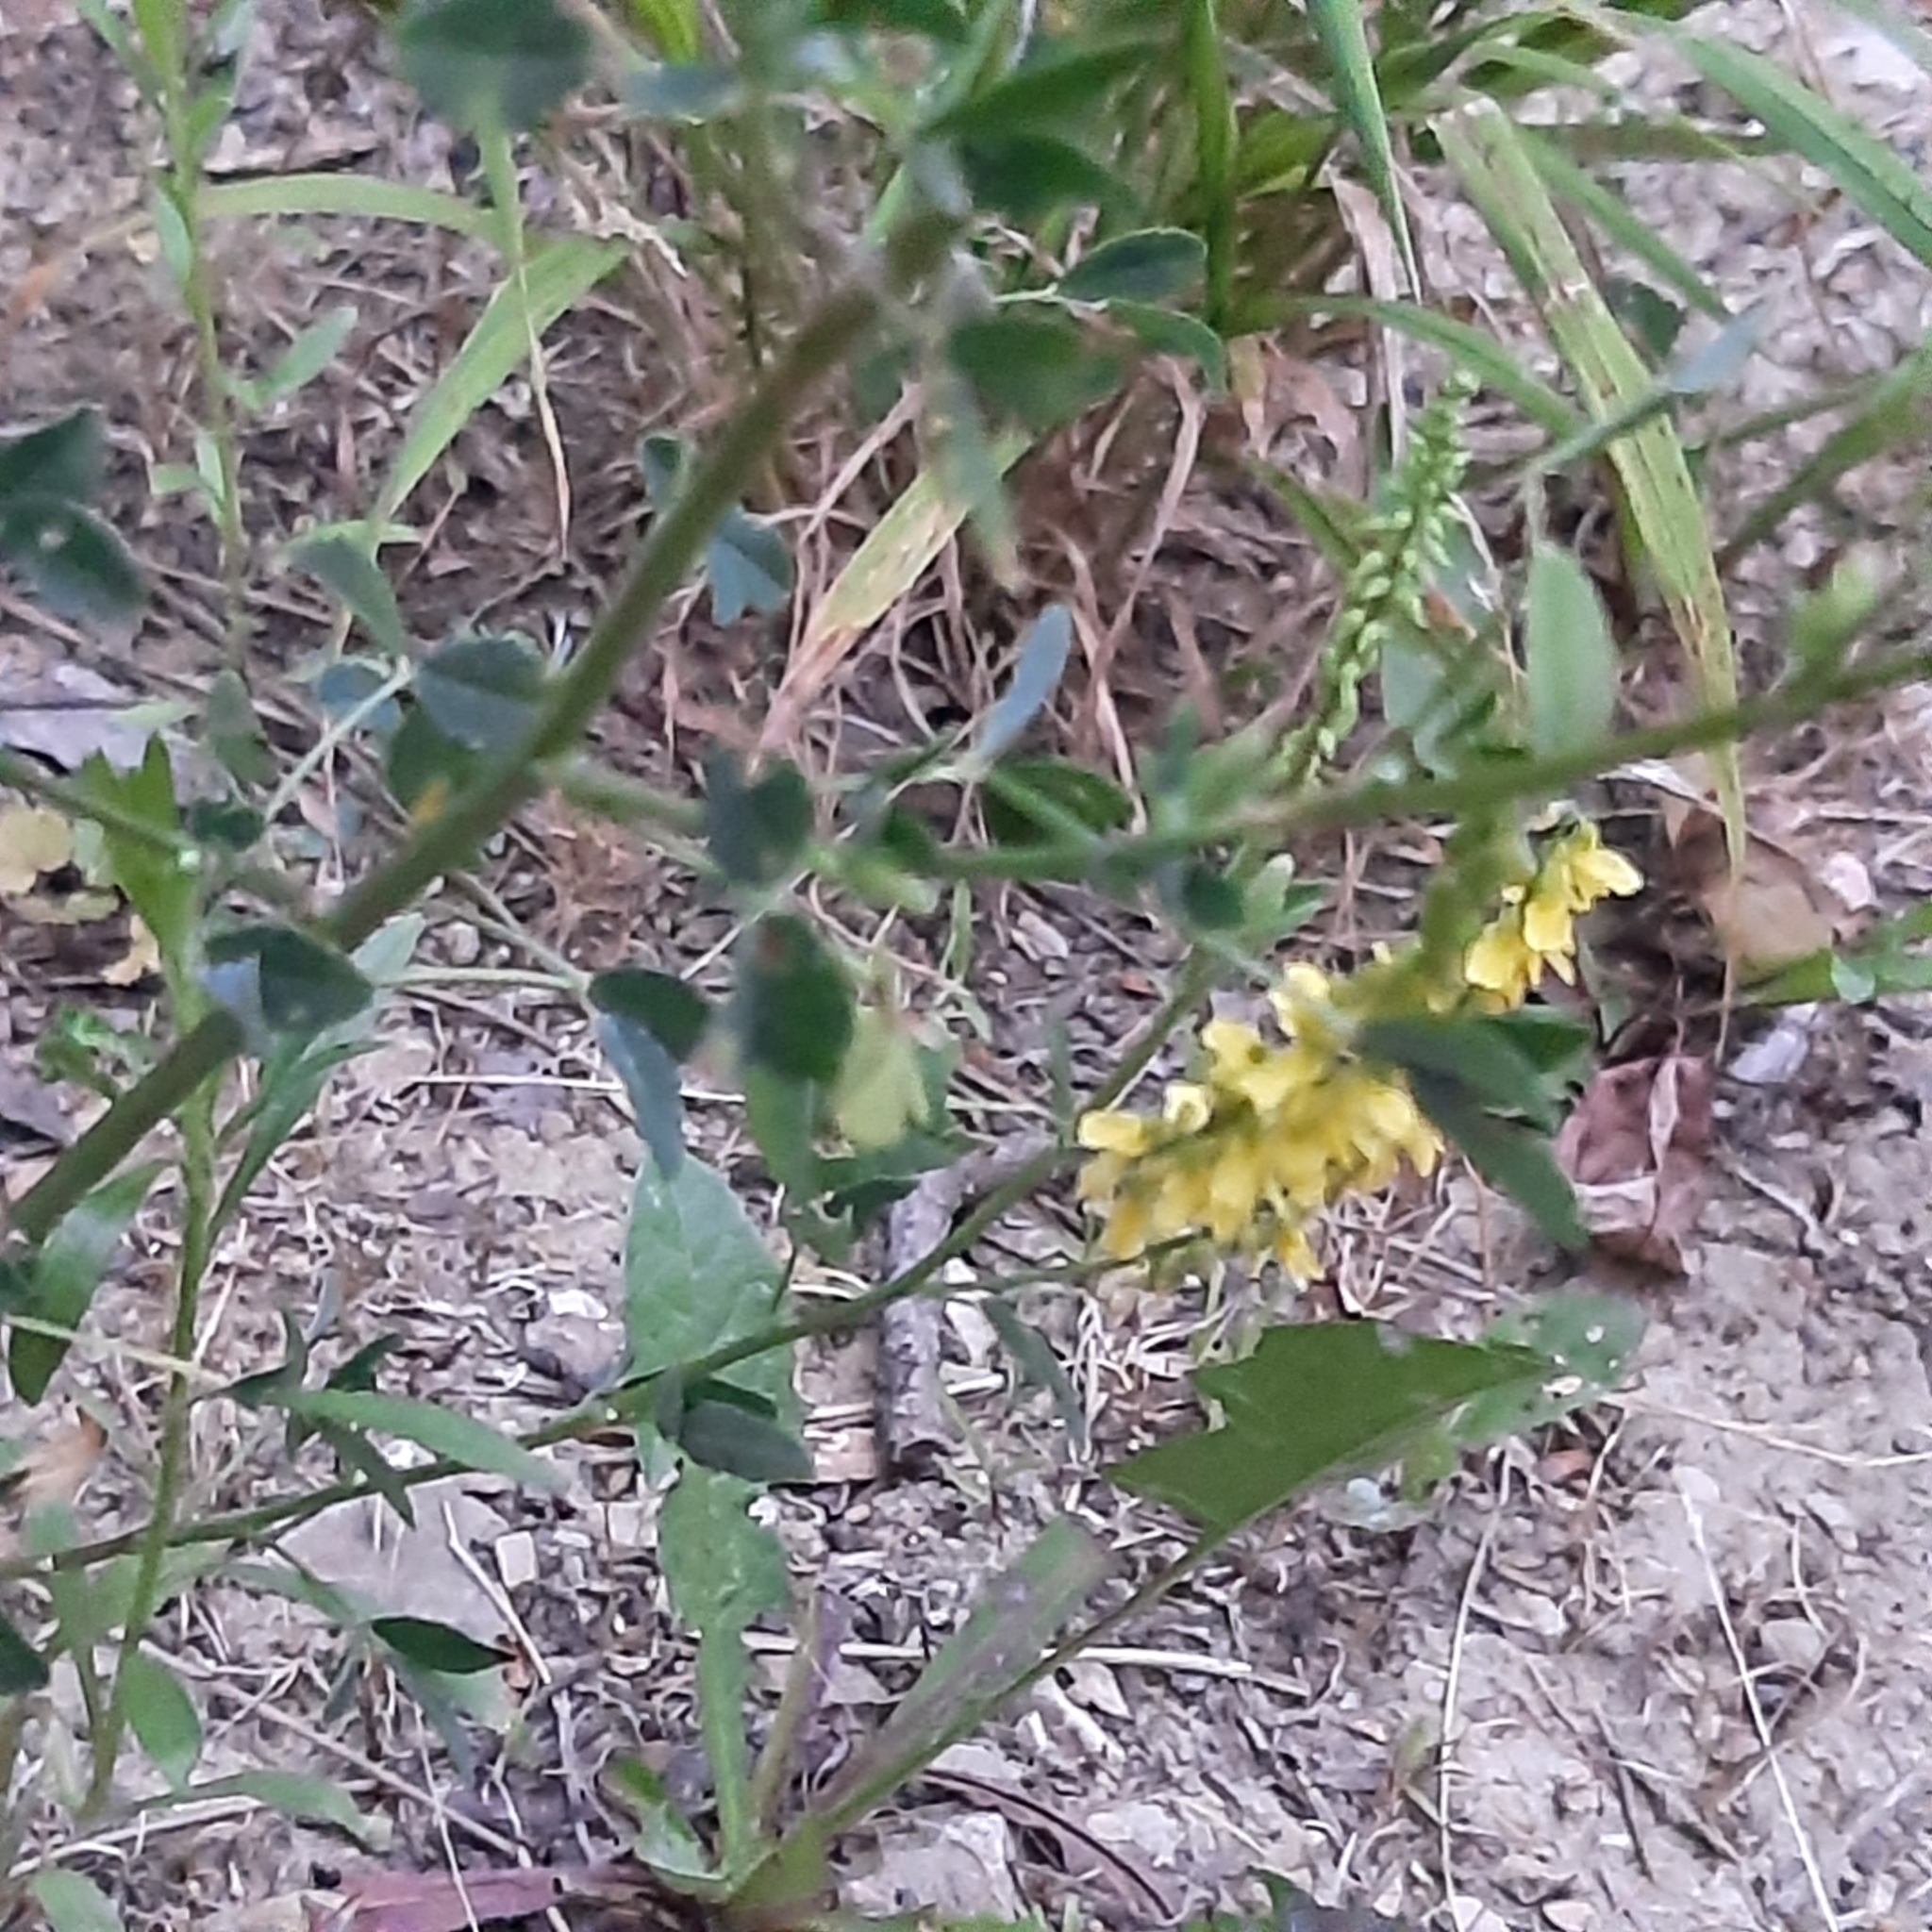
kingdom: Plantae
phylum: Tracheophyta
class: Magnoliopsida
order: Fabales
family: Fabaceae
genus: Melilotus
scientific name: Melilotus officinalis
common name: Sweetclover
